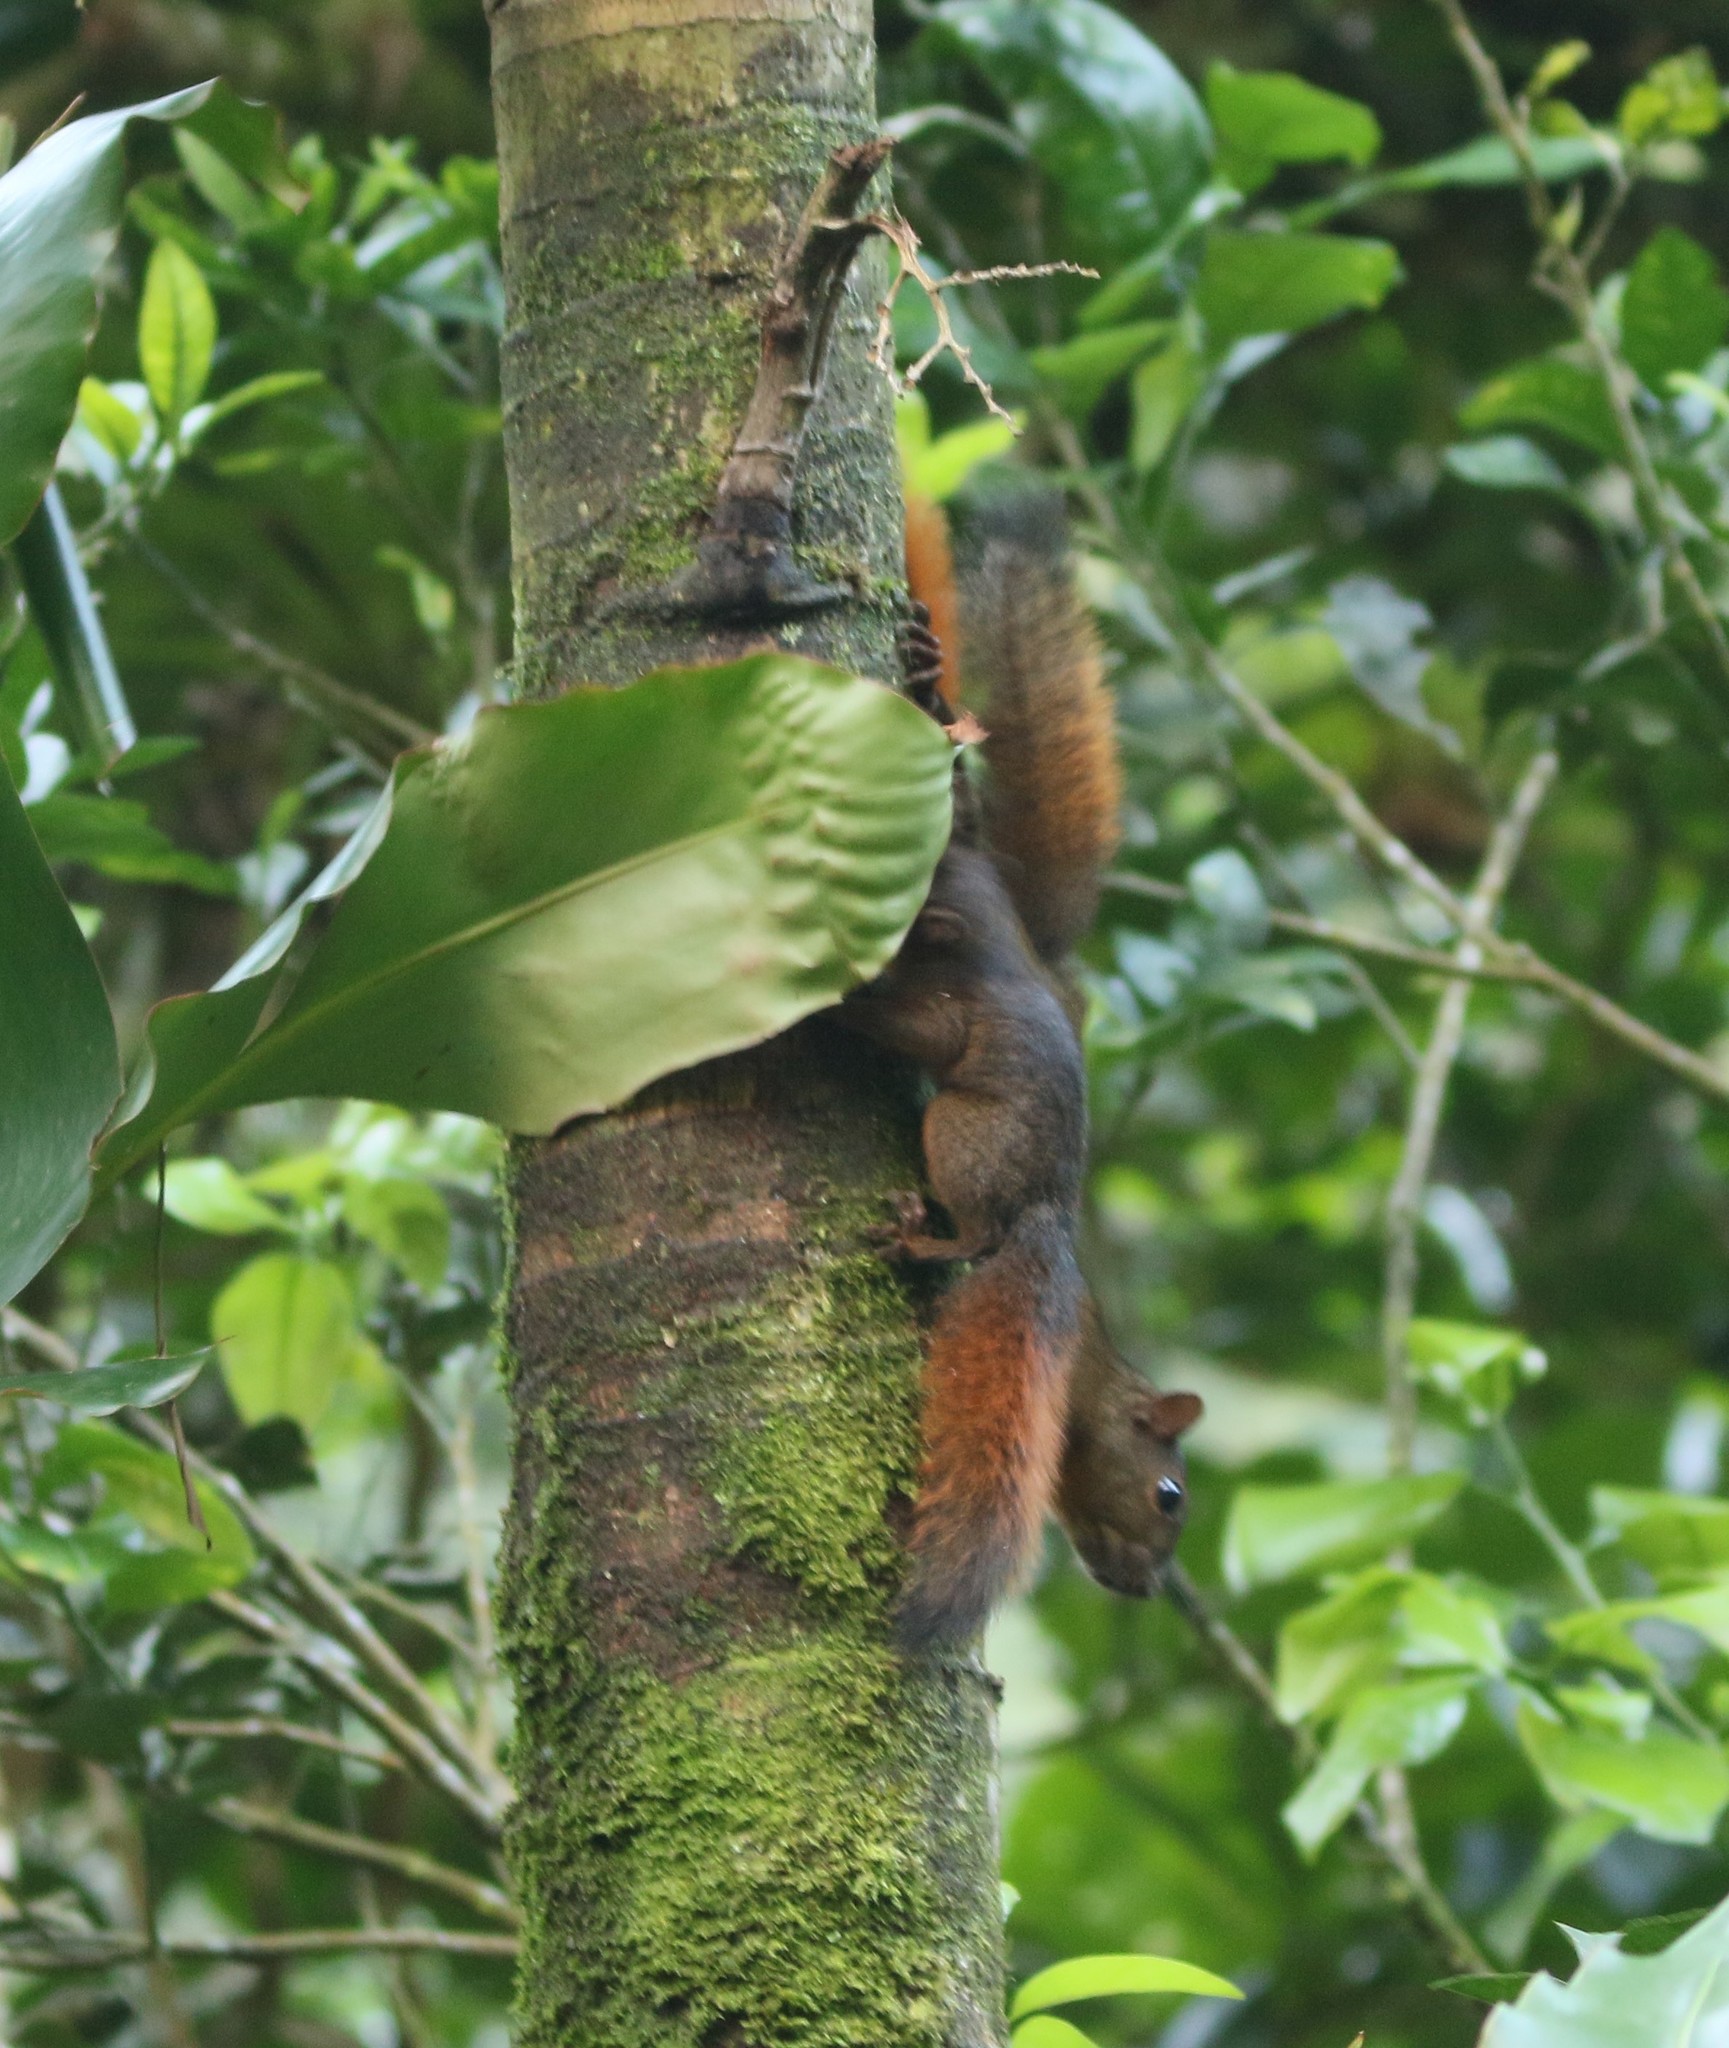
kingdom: Animalia
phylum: Chordata
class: Mammalia
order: Rodentia
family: Sciuridae
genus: Sciurus
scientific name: Sciurus granatensis
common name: Red-tailed squirrel
